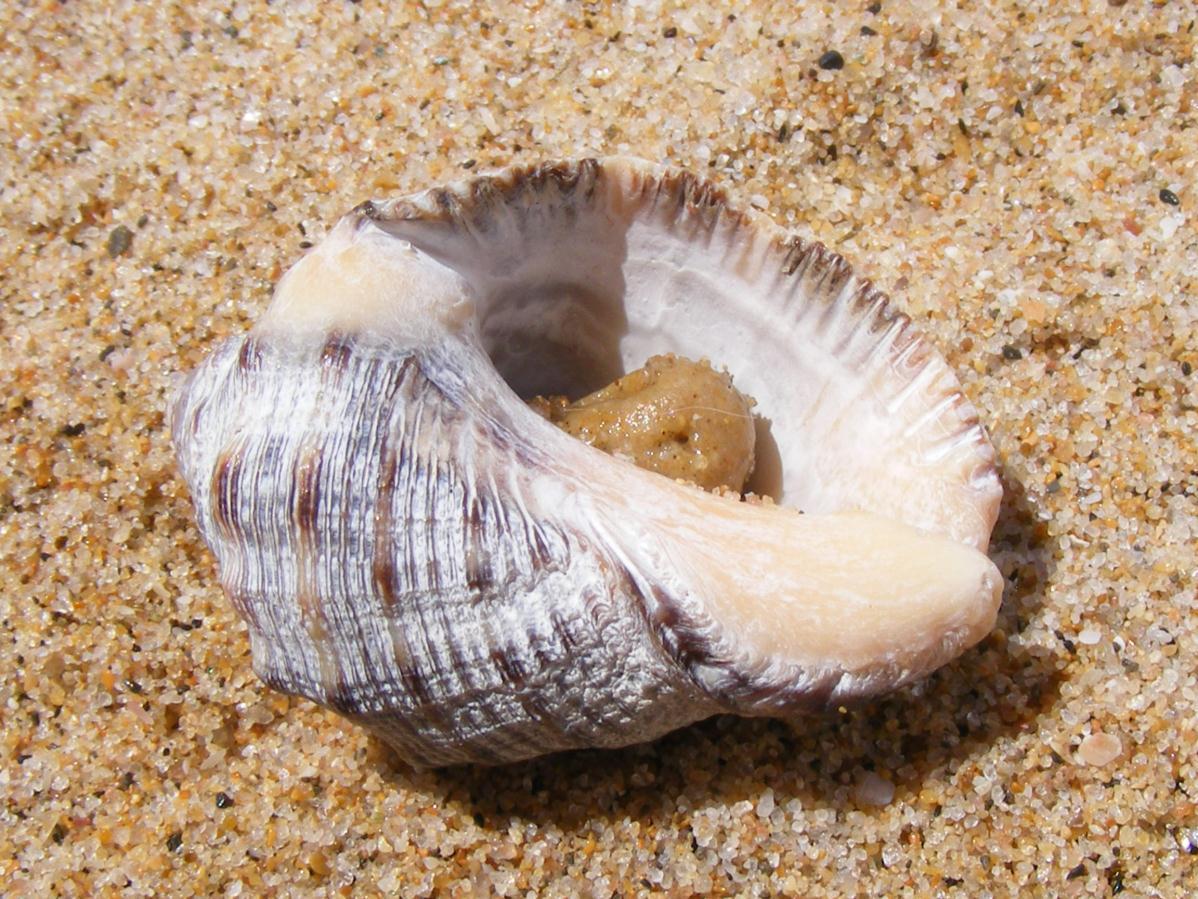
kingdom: Animalia
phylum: Mollusca
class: Gastropoda
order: Neogastropoda
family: Muricidae
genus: Purpura
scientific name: Purpura bufo
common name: Toad purple
